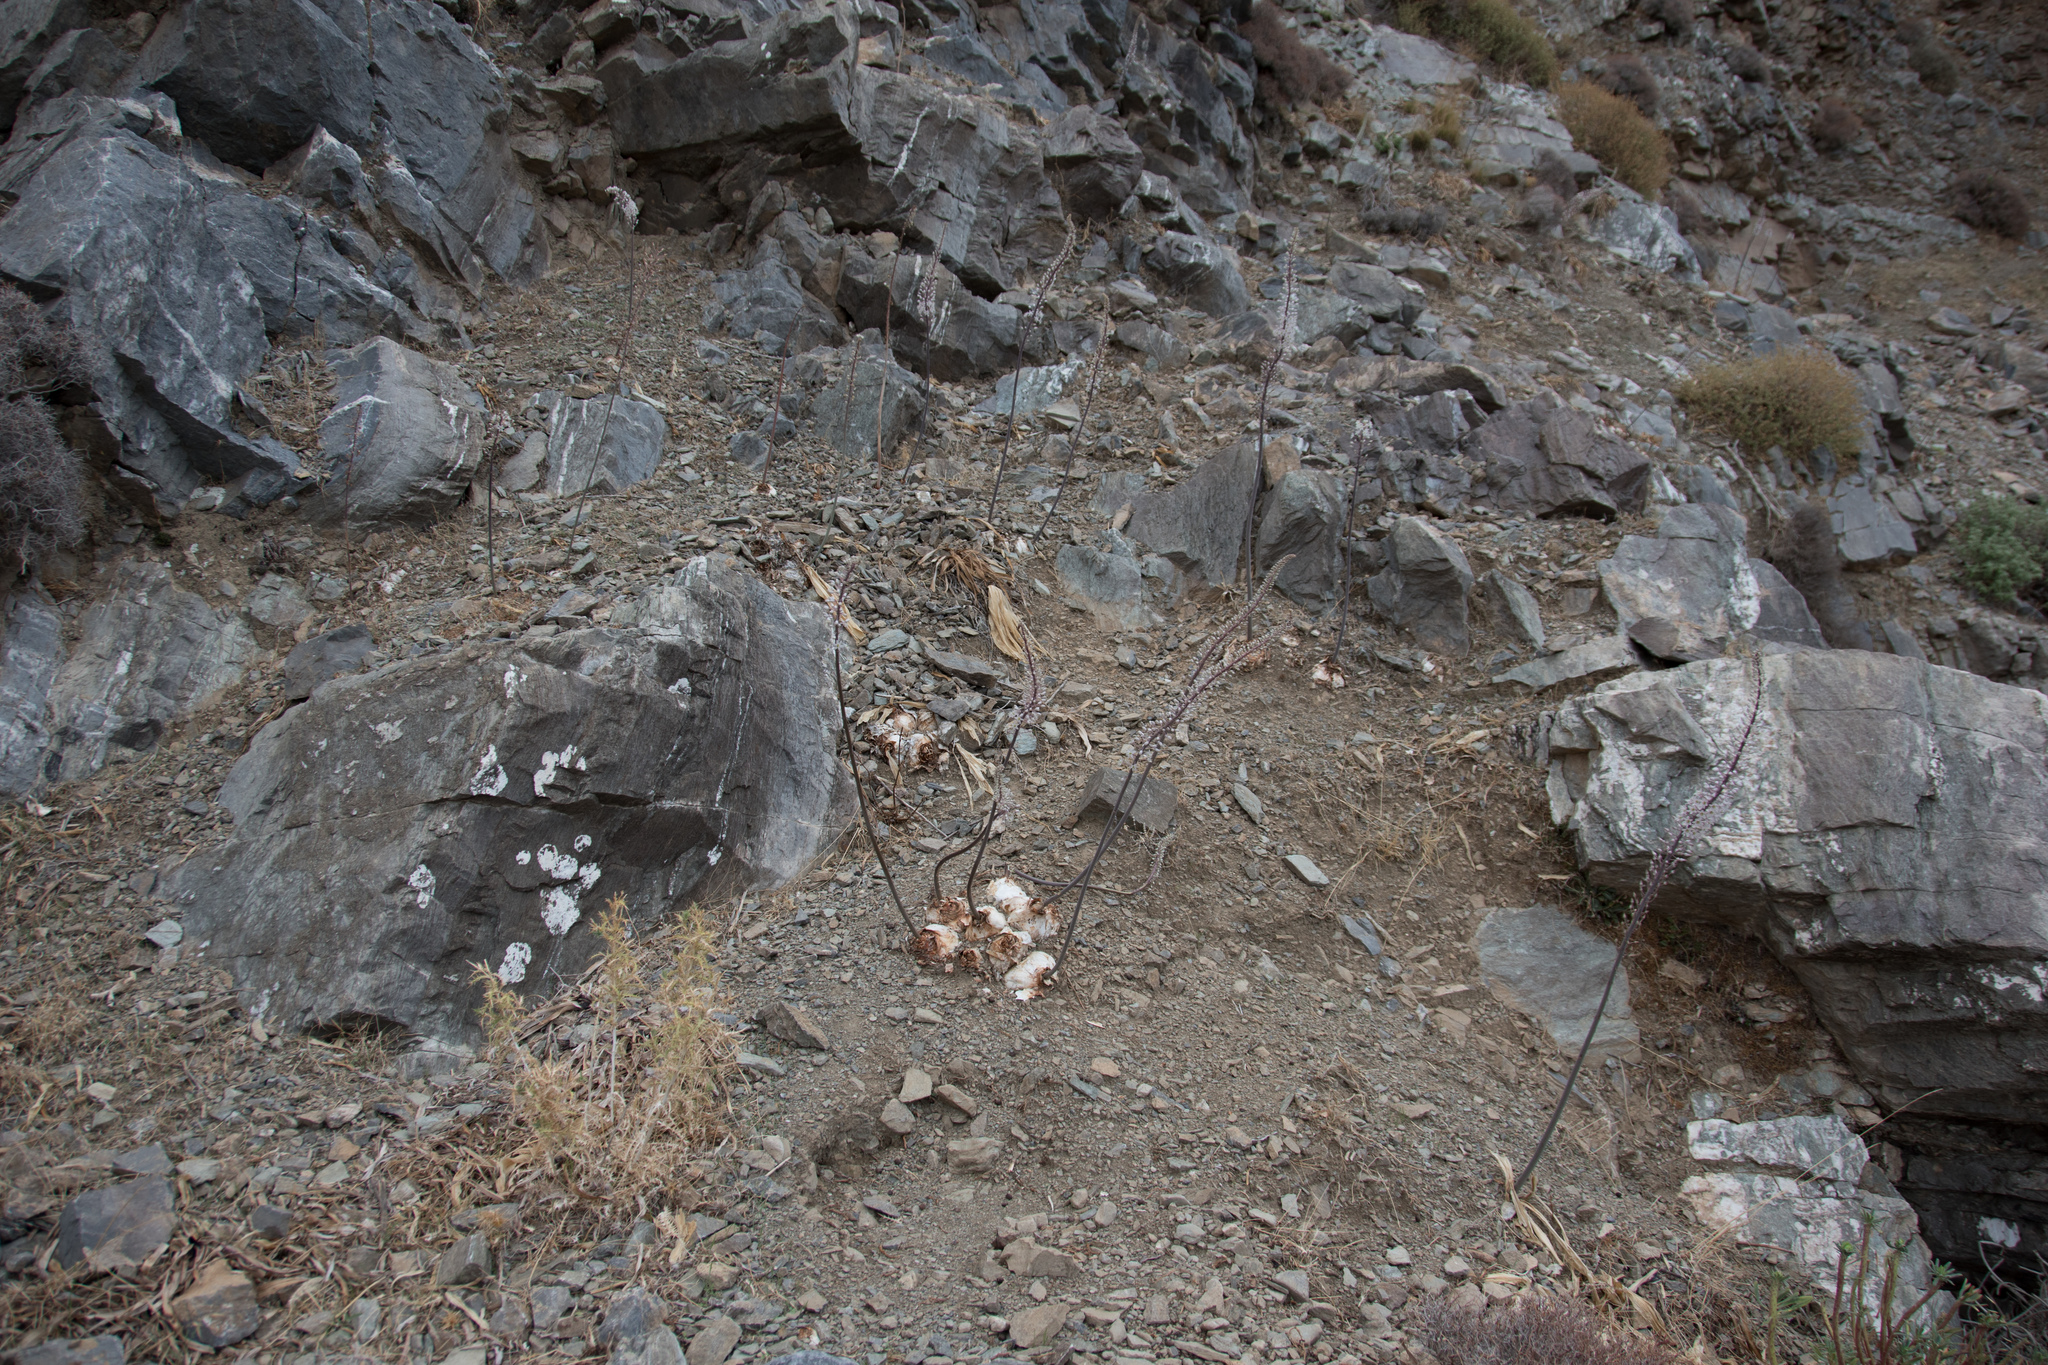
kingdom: Plantae
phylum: Tracheophyta
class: Liliopsida
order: Asparagales
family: Asparagaceae
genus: Drimia
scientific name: Drimia numidica
